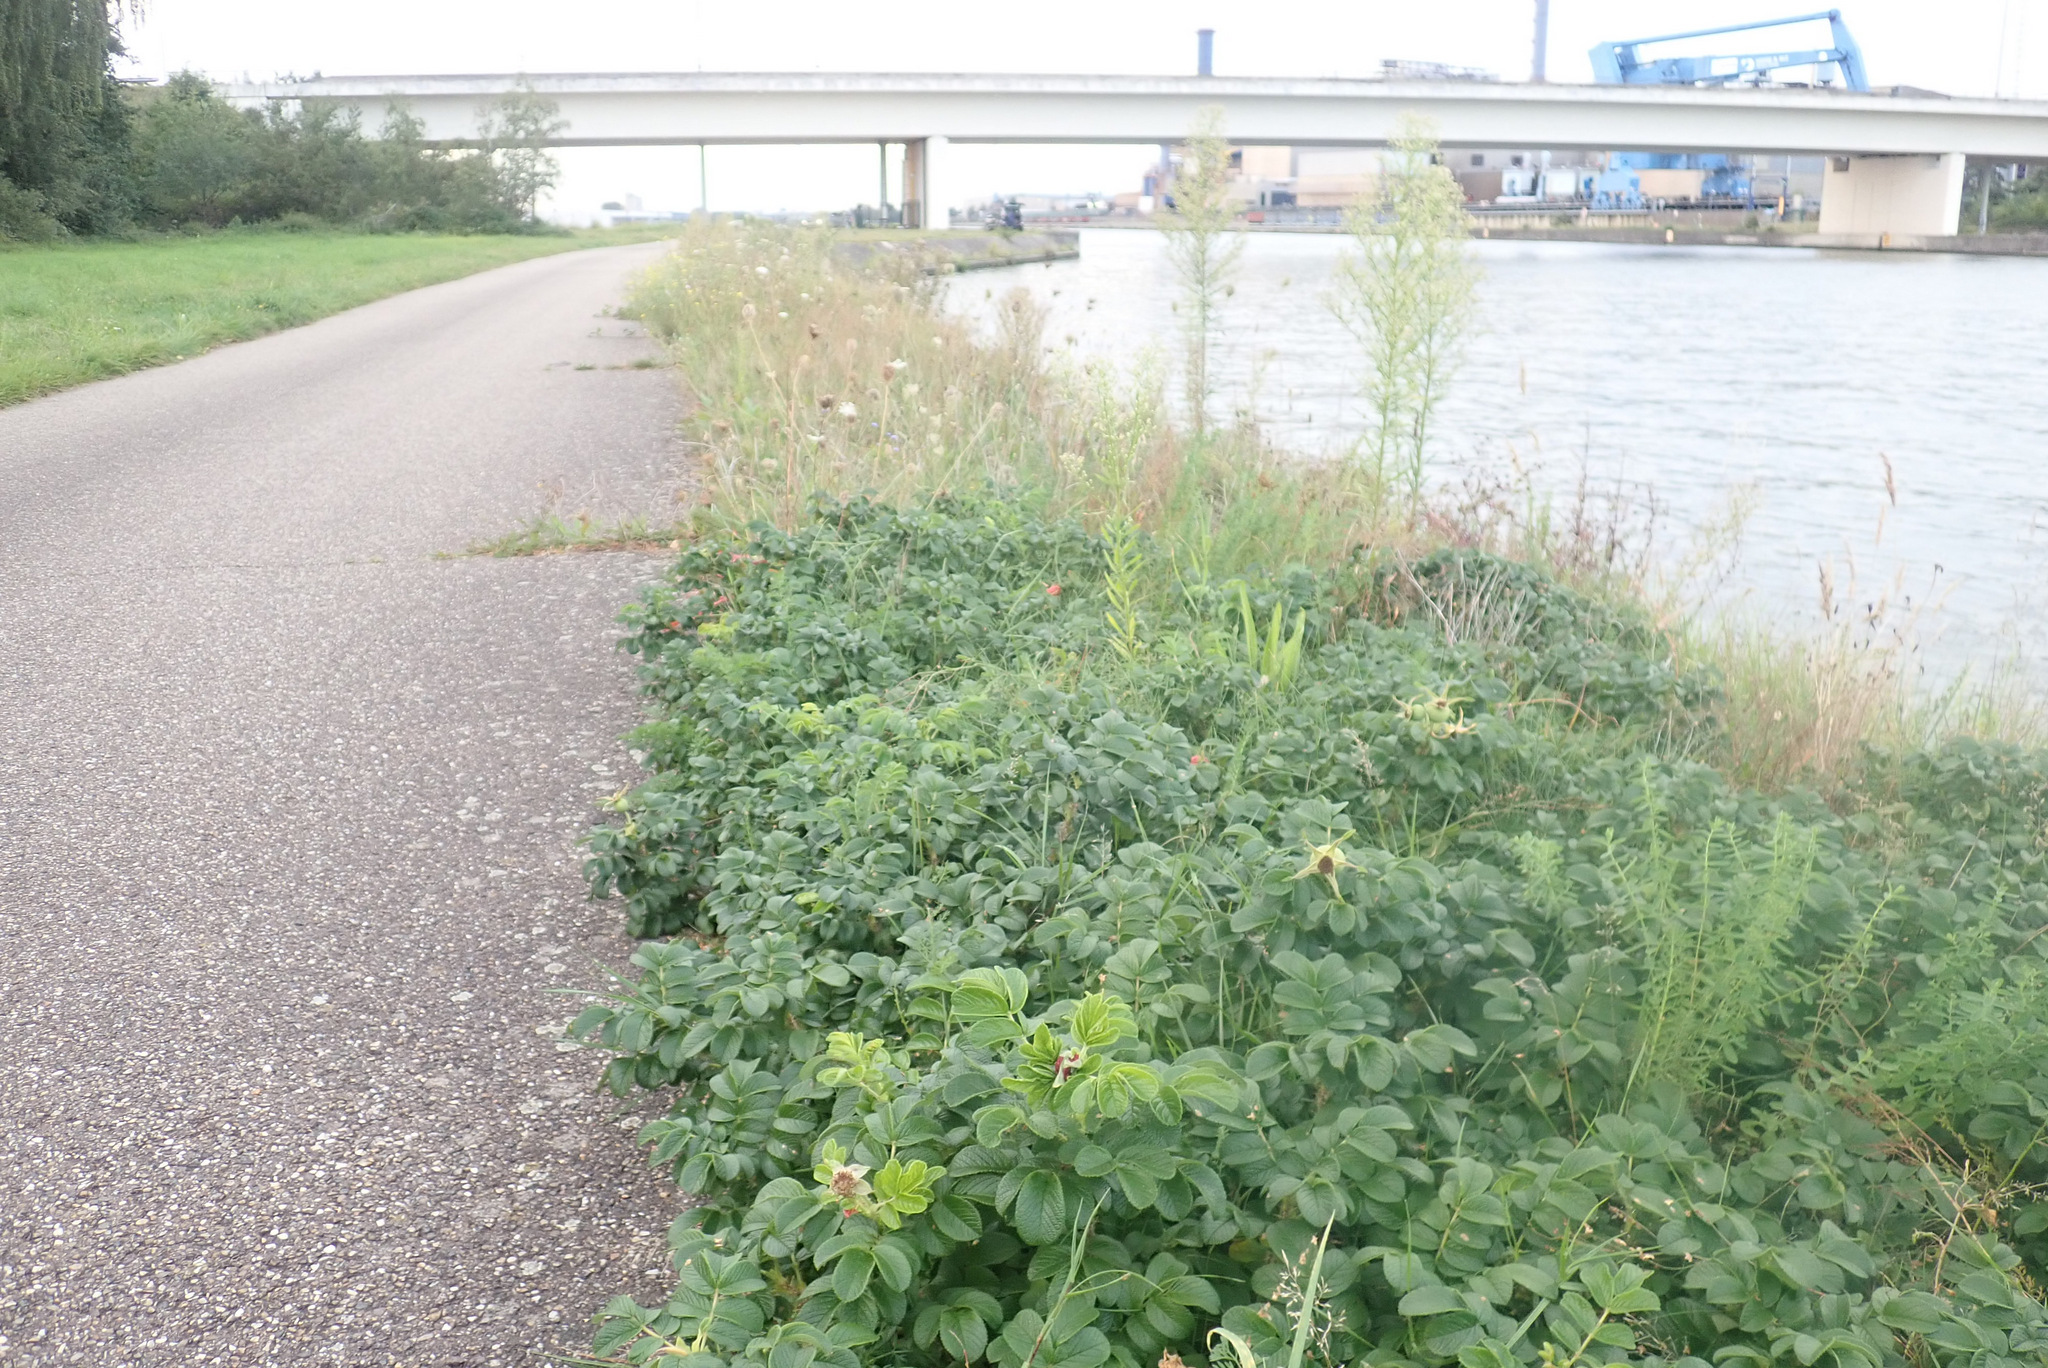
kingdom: Plantae
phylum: Tracheophyta
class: Magnoliopsida
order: Rosales
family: Rosaceae
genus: Rosa
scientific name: Rosa rugosa
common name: Japanese rose
